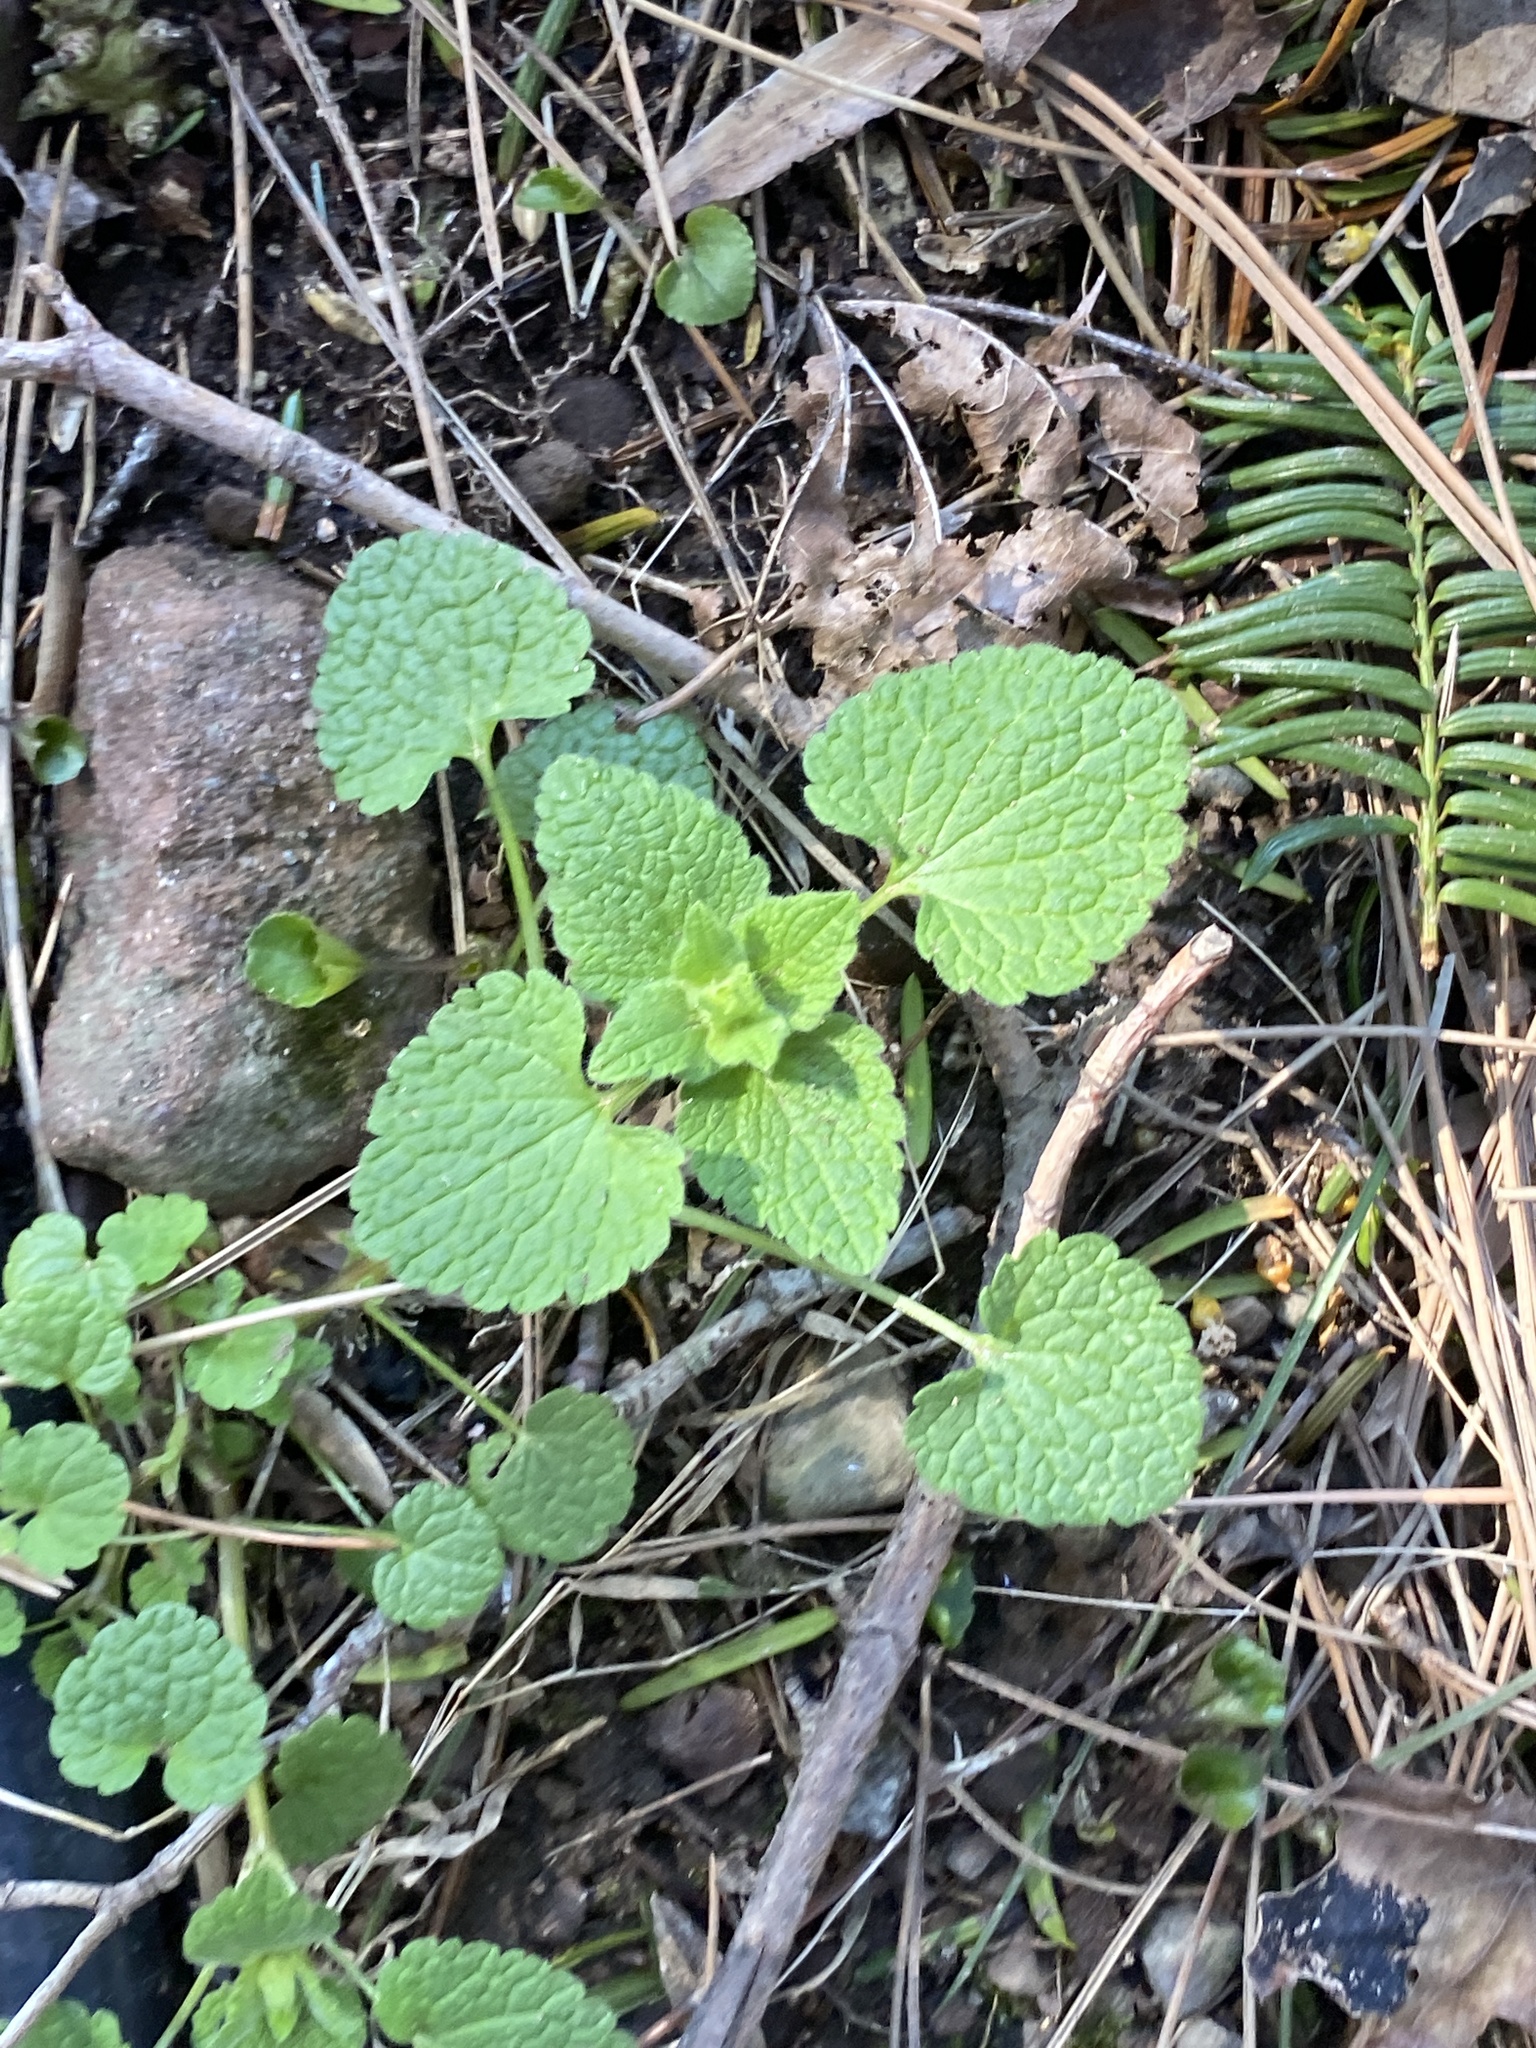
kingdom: Plantae
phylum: Tracheophyta
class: Magnoliopsida
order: Lamiales
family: Lamiaceae
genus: Lamium
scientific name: Lamium purpureum
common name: Red dead-nettle
